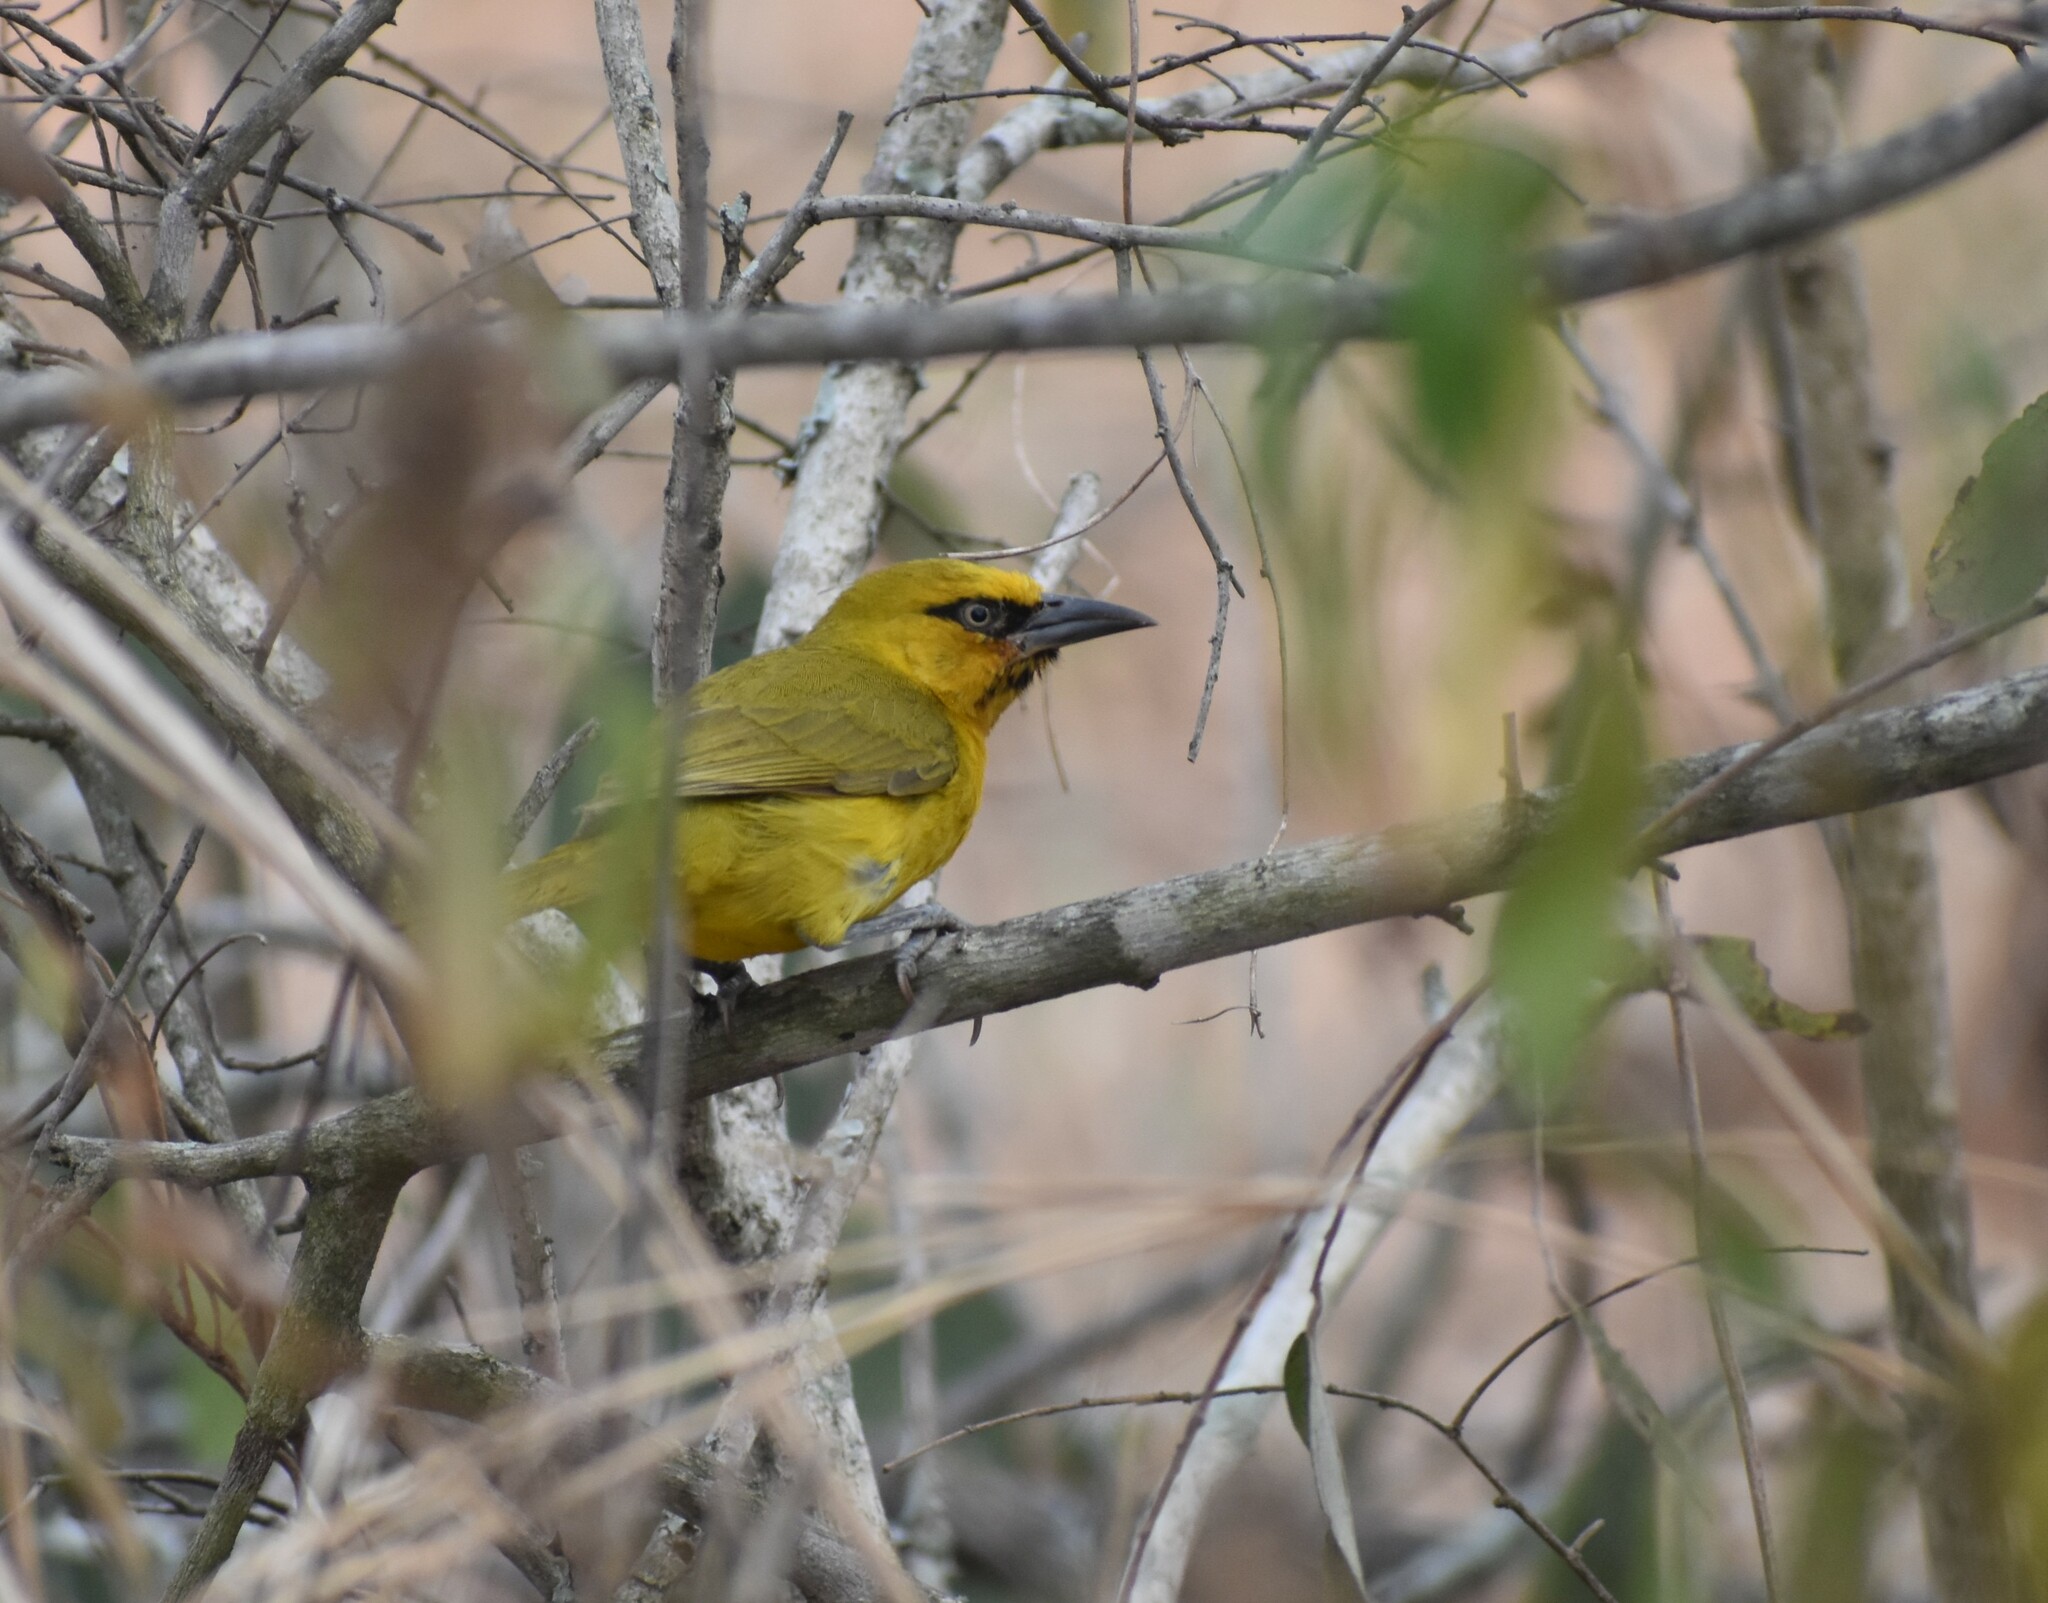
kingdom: Animalia
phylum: Chordata
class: Aves
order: Passeriformes
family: Ploceidae
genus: Ploceus
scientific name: Ploceus ocularis
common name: Spectacled weaver
